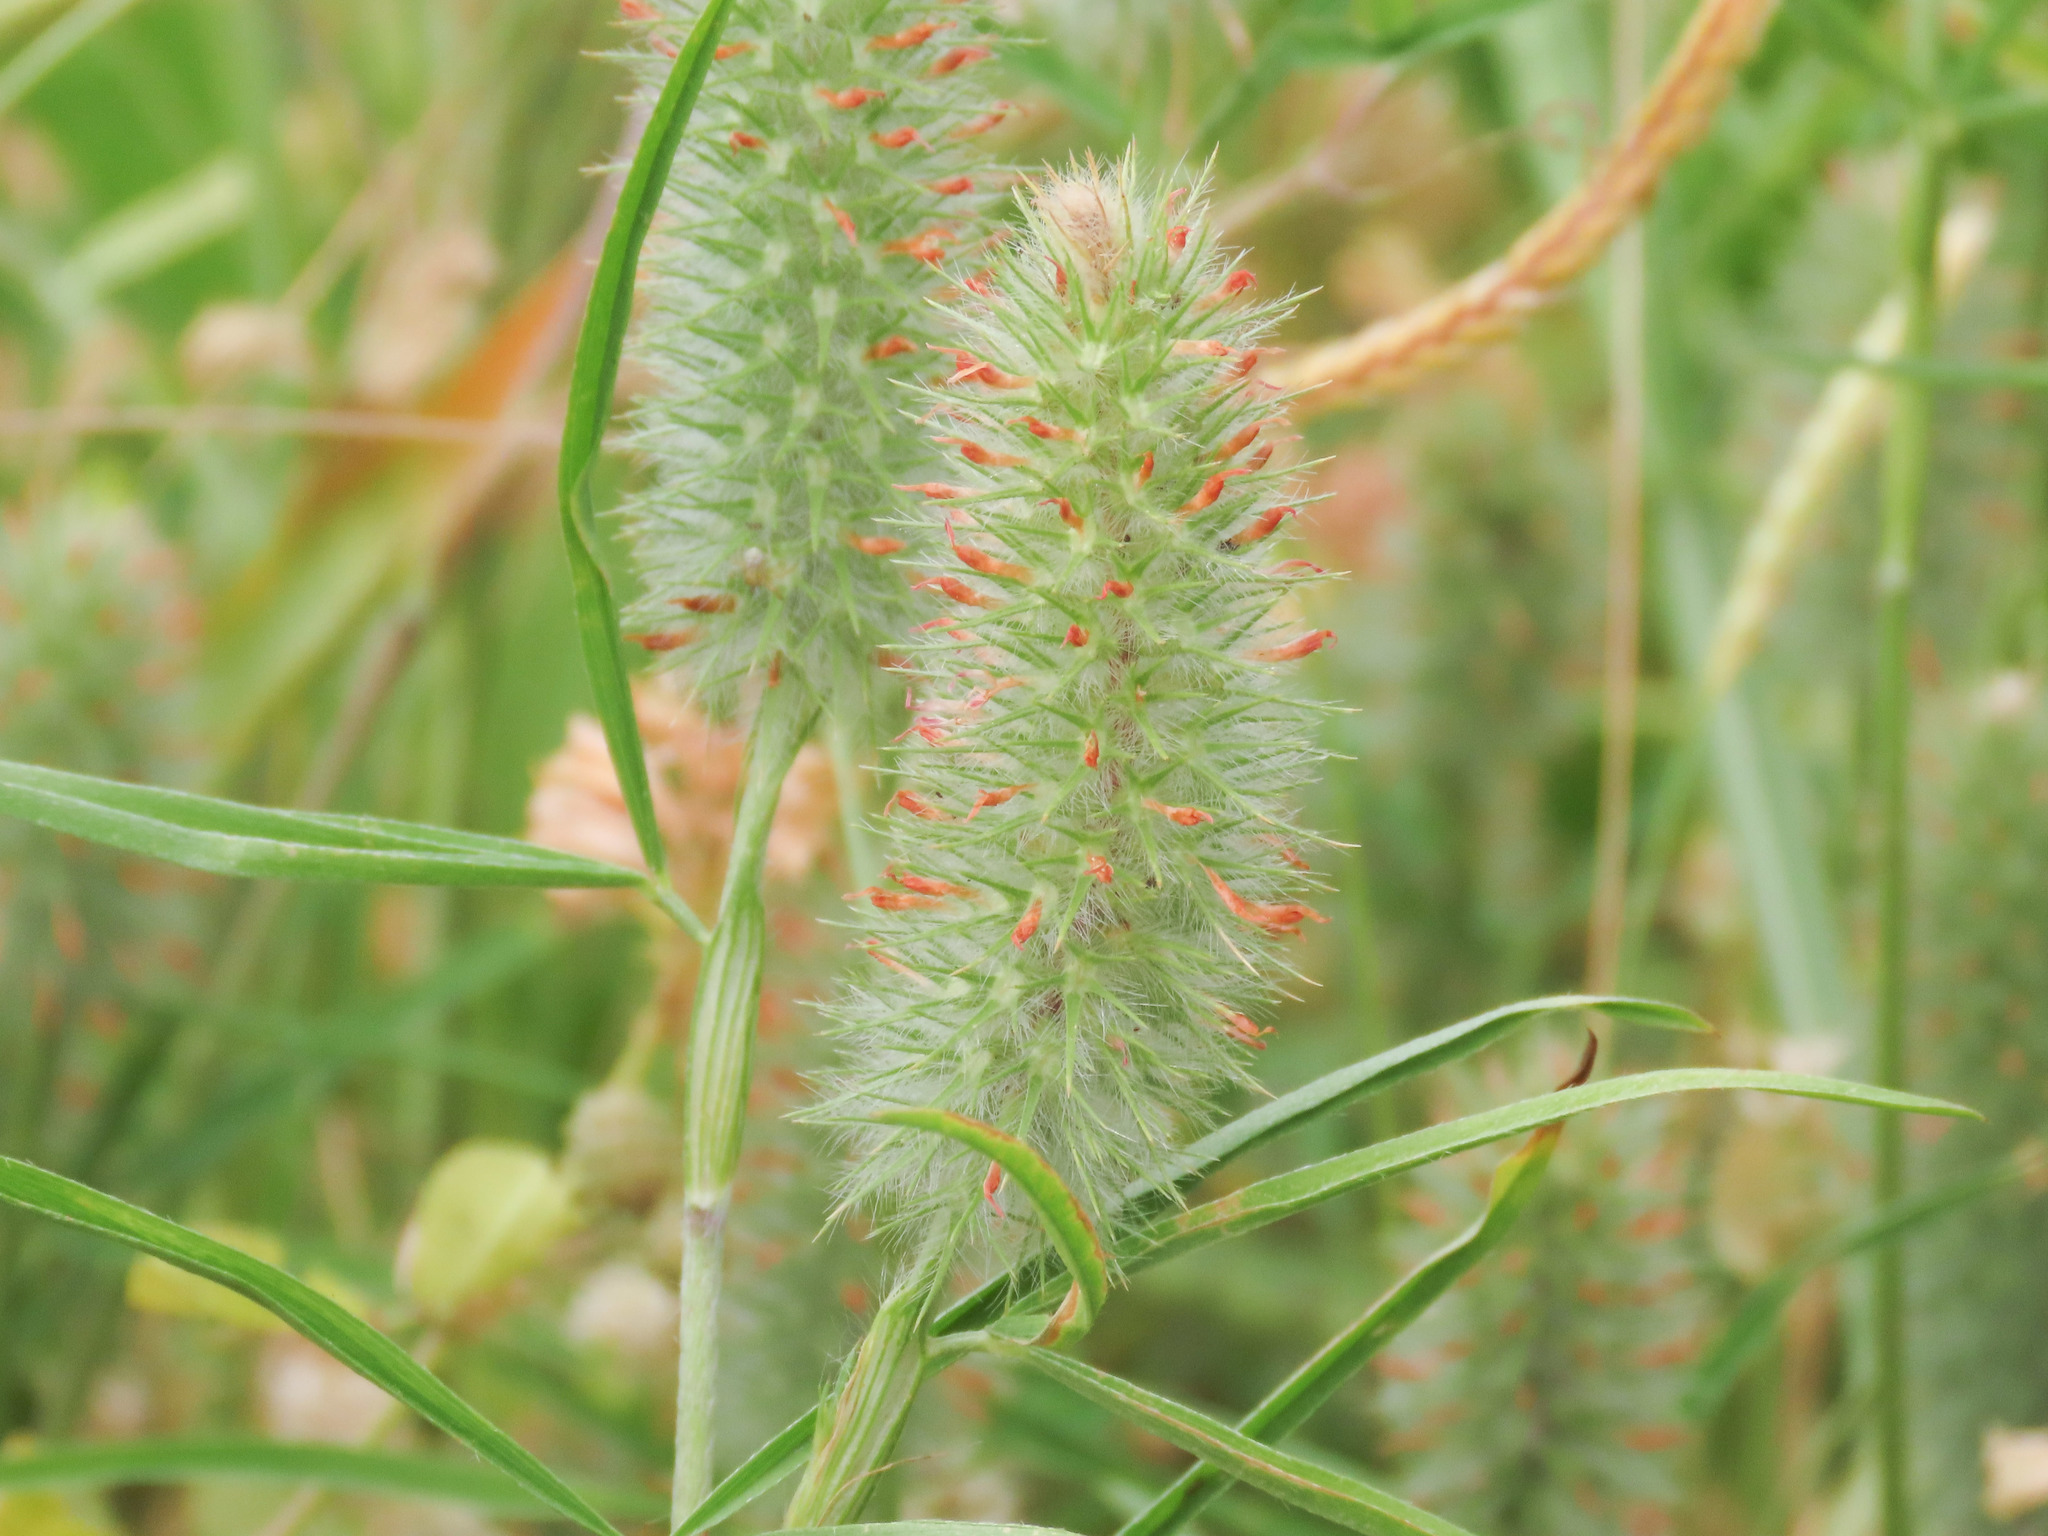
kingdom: Plantae
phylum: Tracheophyta
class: Magnoliopsida
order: Fabales
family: Fabaceae
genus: Trifolium
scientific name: Trifolium angustifolium
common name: Narrow clover
